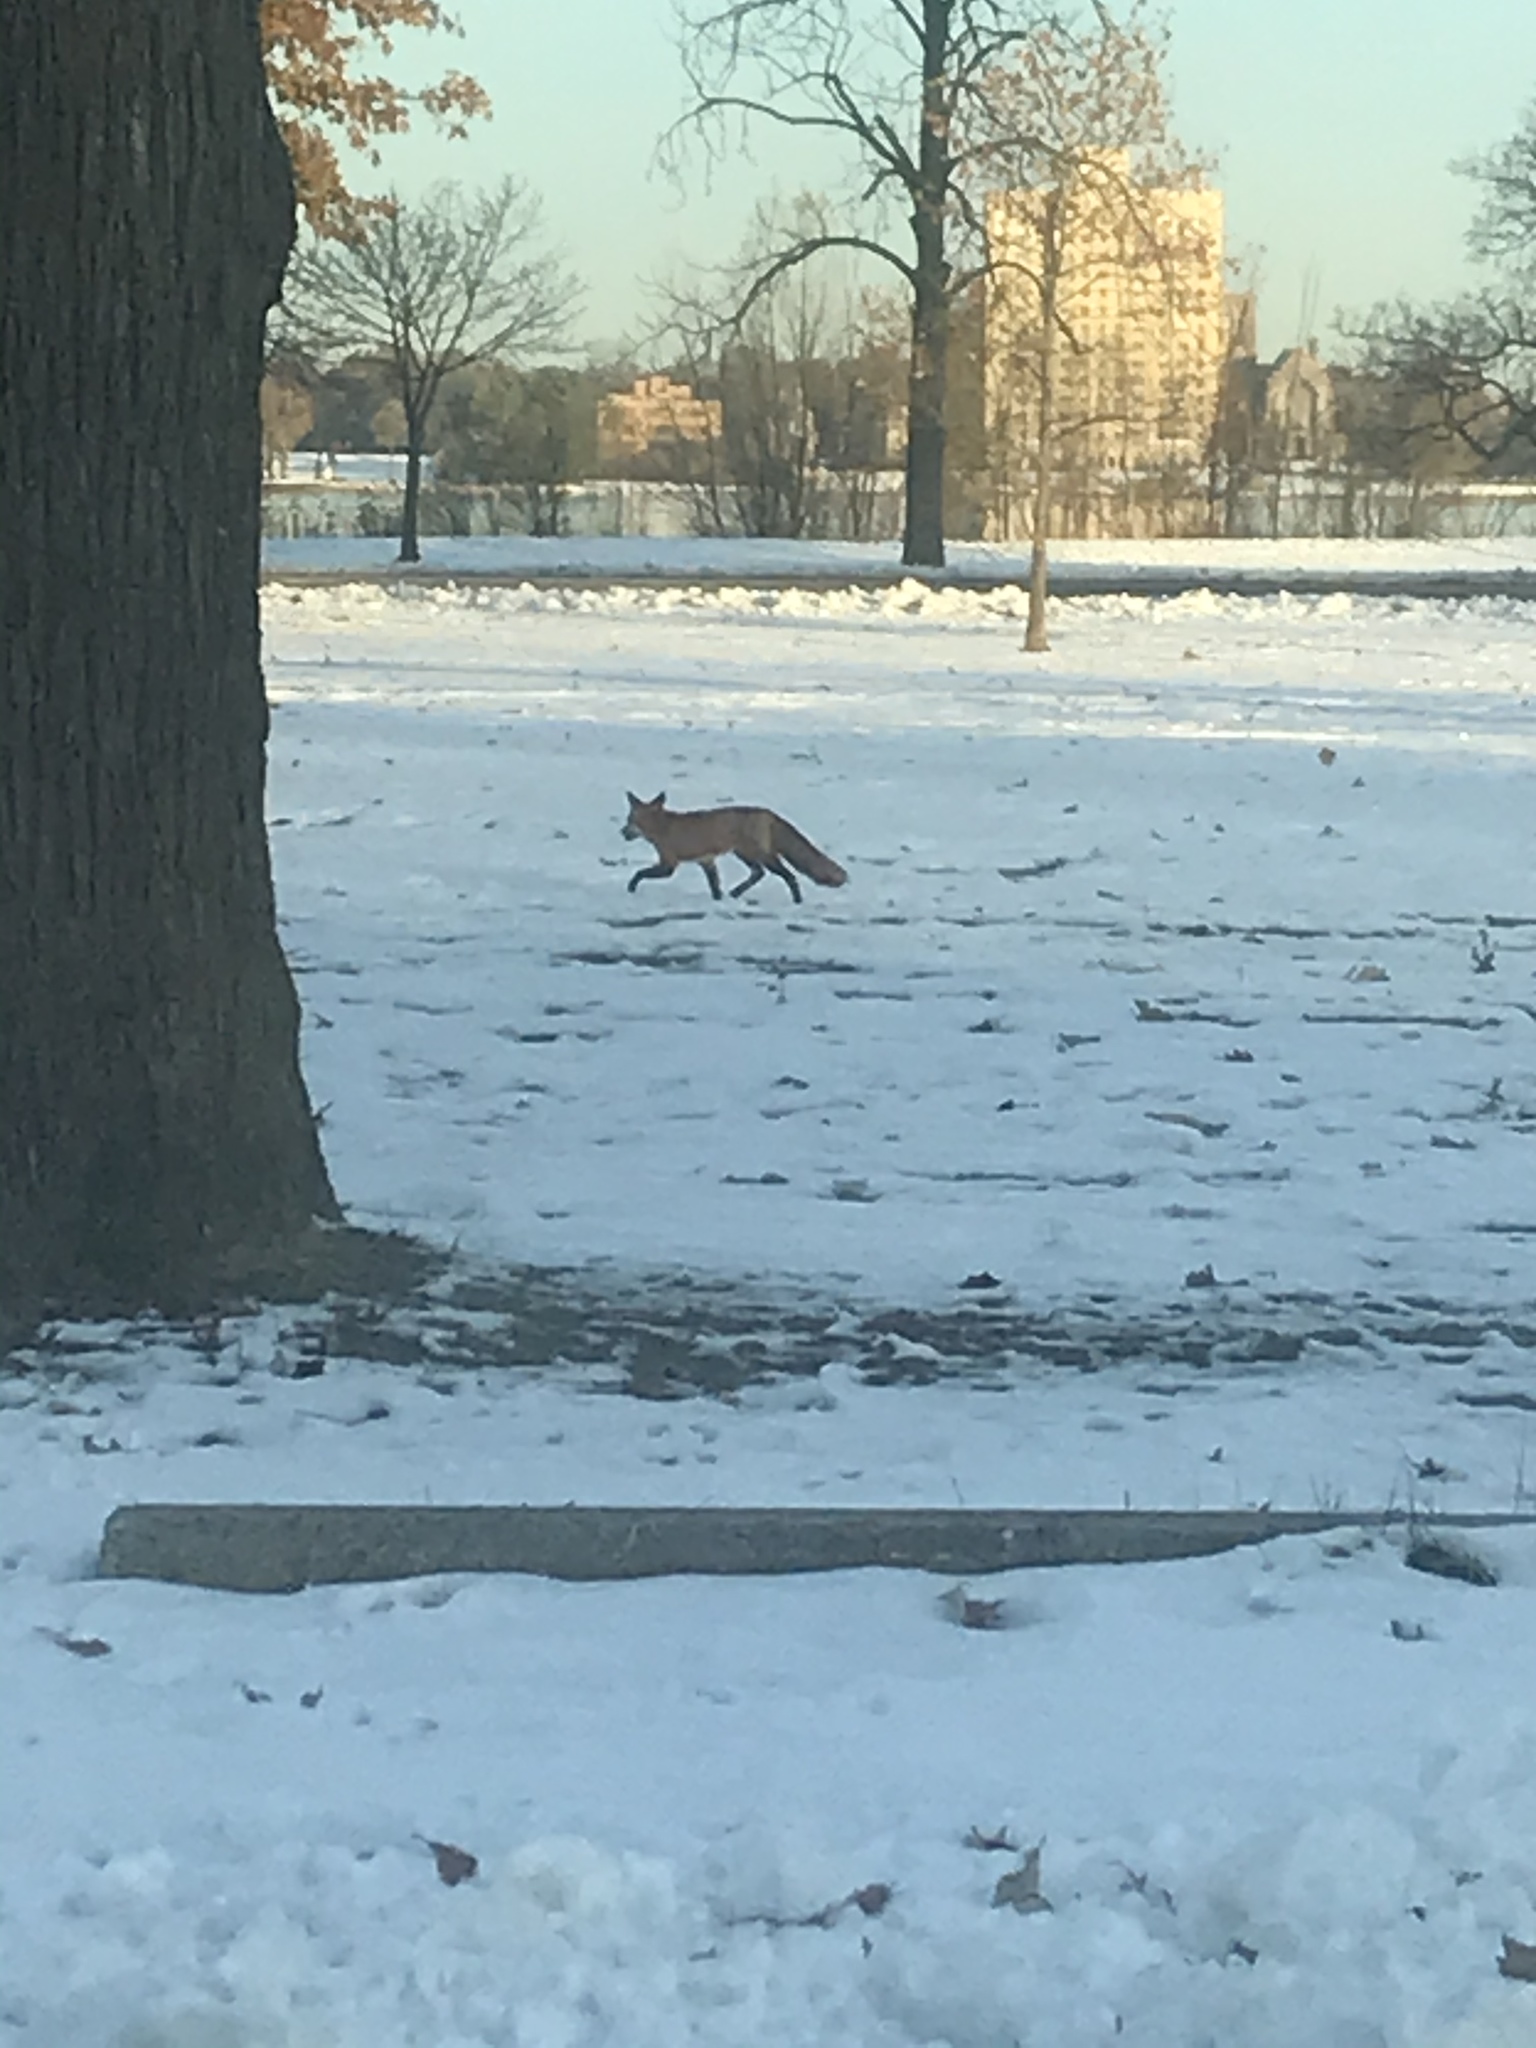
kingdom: Animalia
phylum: Chordata
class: Mammalia
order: Carnivora
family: Canidae
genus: Vulpes
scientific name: Vulpes vulpes
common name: Red fox
